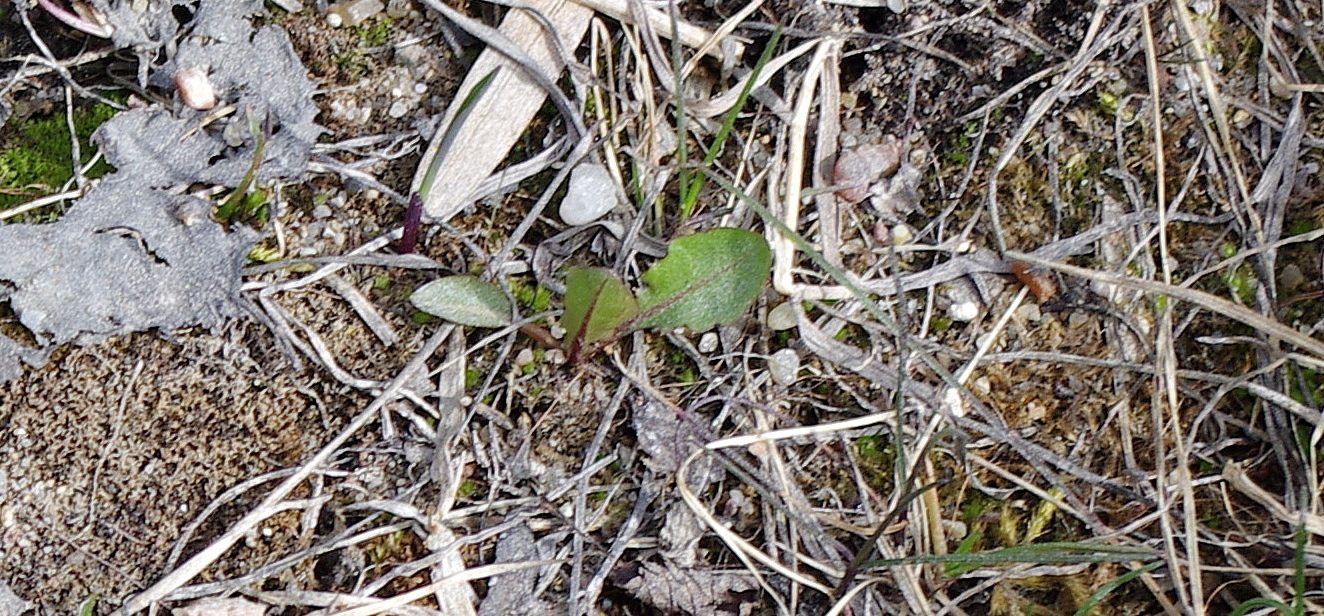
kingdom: Plantae
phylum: Tracheophyta
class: Magnoliopsida
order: Asterales
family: Asteraceae
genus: Taraxacum
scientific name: Taraxacum officinale
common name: Common dandelion
